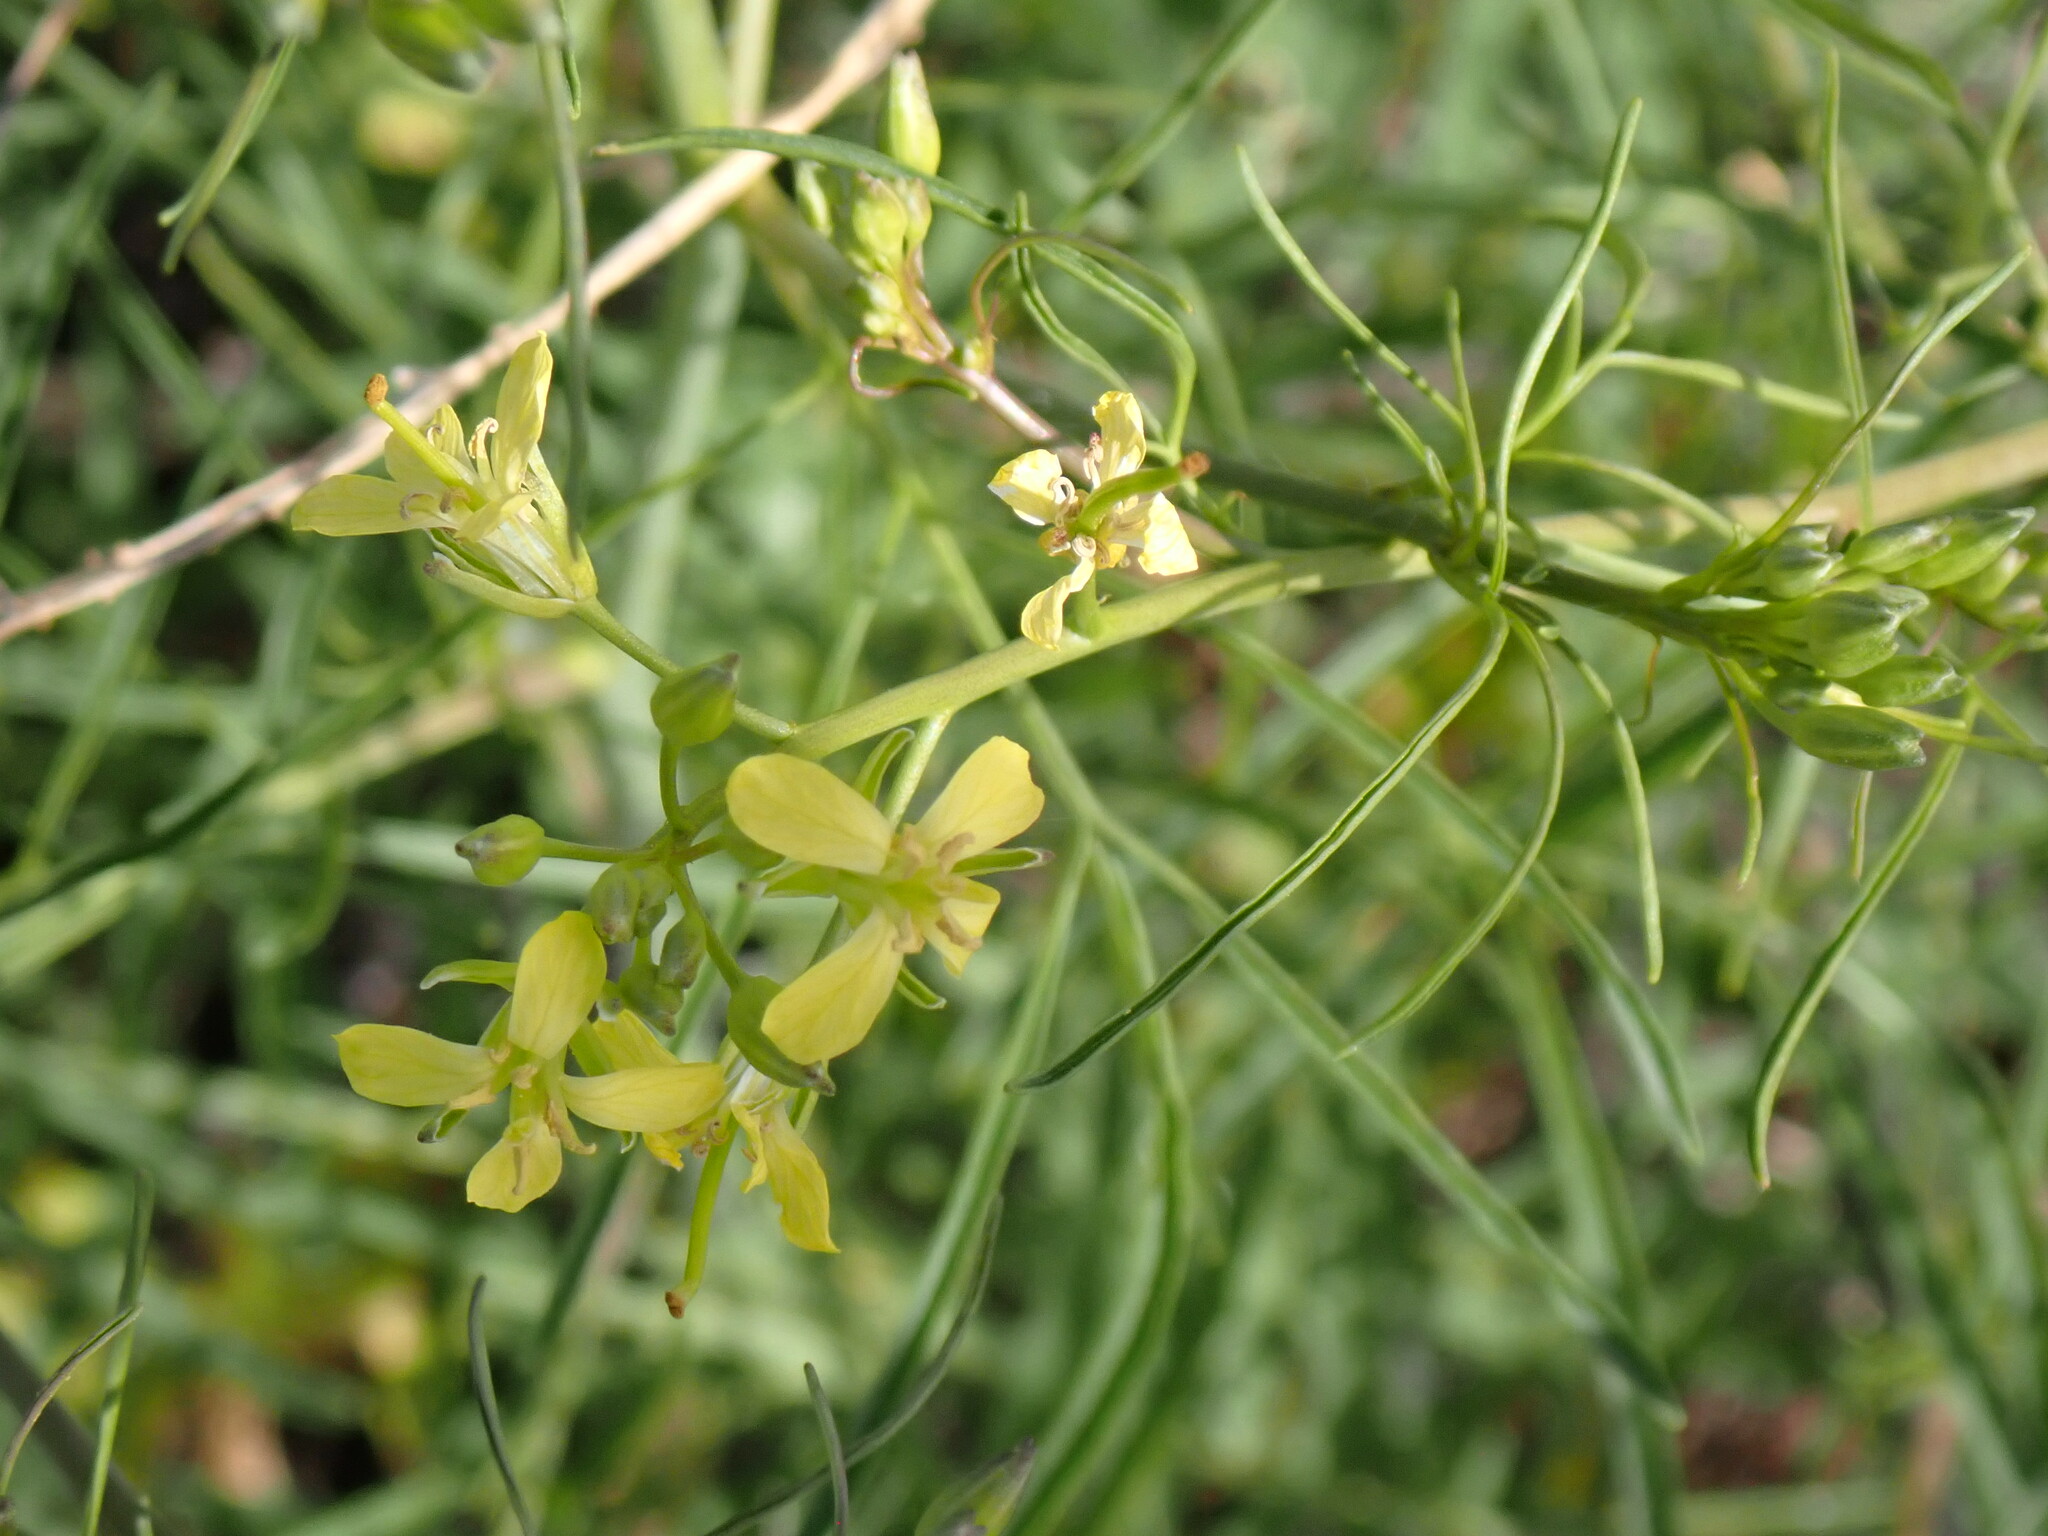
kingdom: Plantae
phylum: Tracheophyta
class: Magnoliopsida
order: Brassicales
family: Brassicaceae
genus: Sisymbrium
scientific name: Sisymbrium altissimum
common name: Tall rocket
